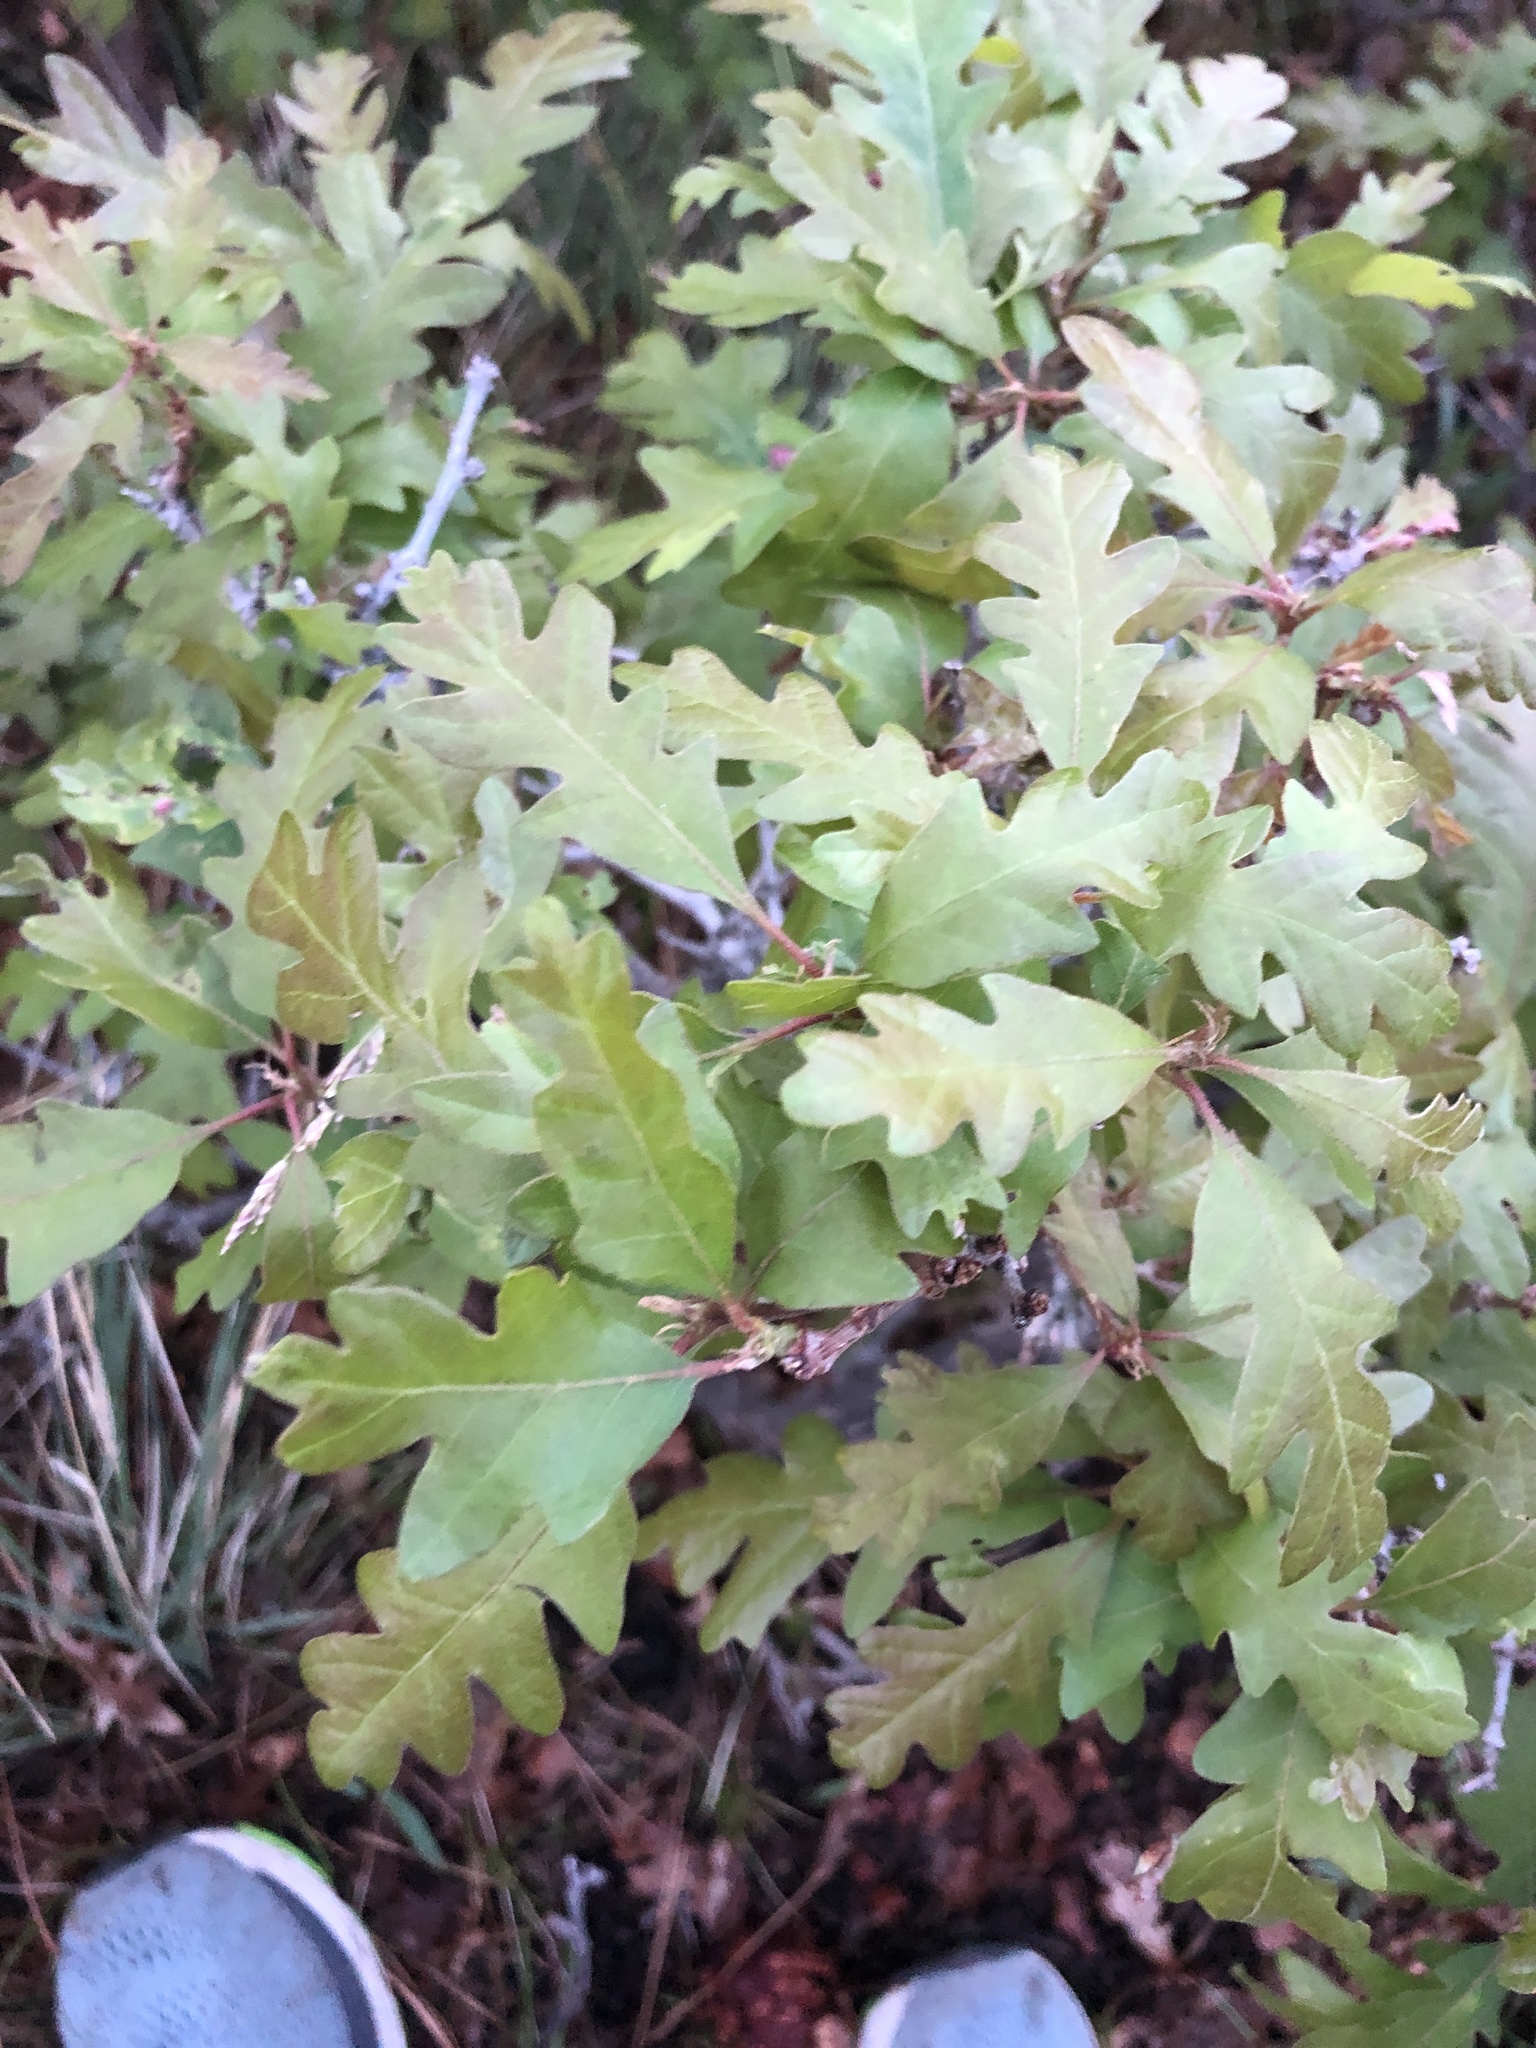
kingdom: Plantae
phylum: Tracheophyta
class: Magnoliopsida
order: Fagales
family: Fagaceae
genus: Quercus
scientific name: Quercus gambelii
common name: Gambel oak
